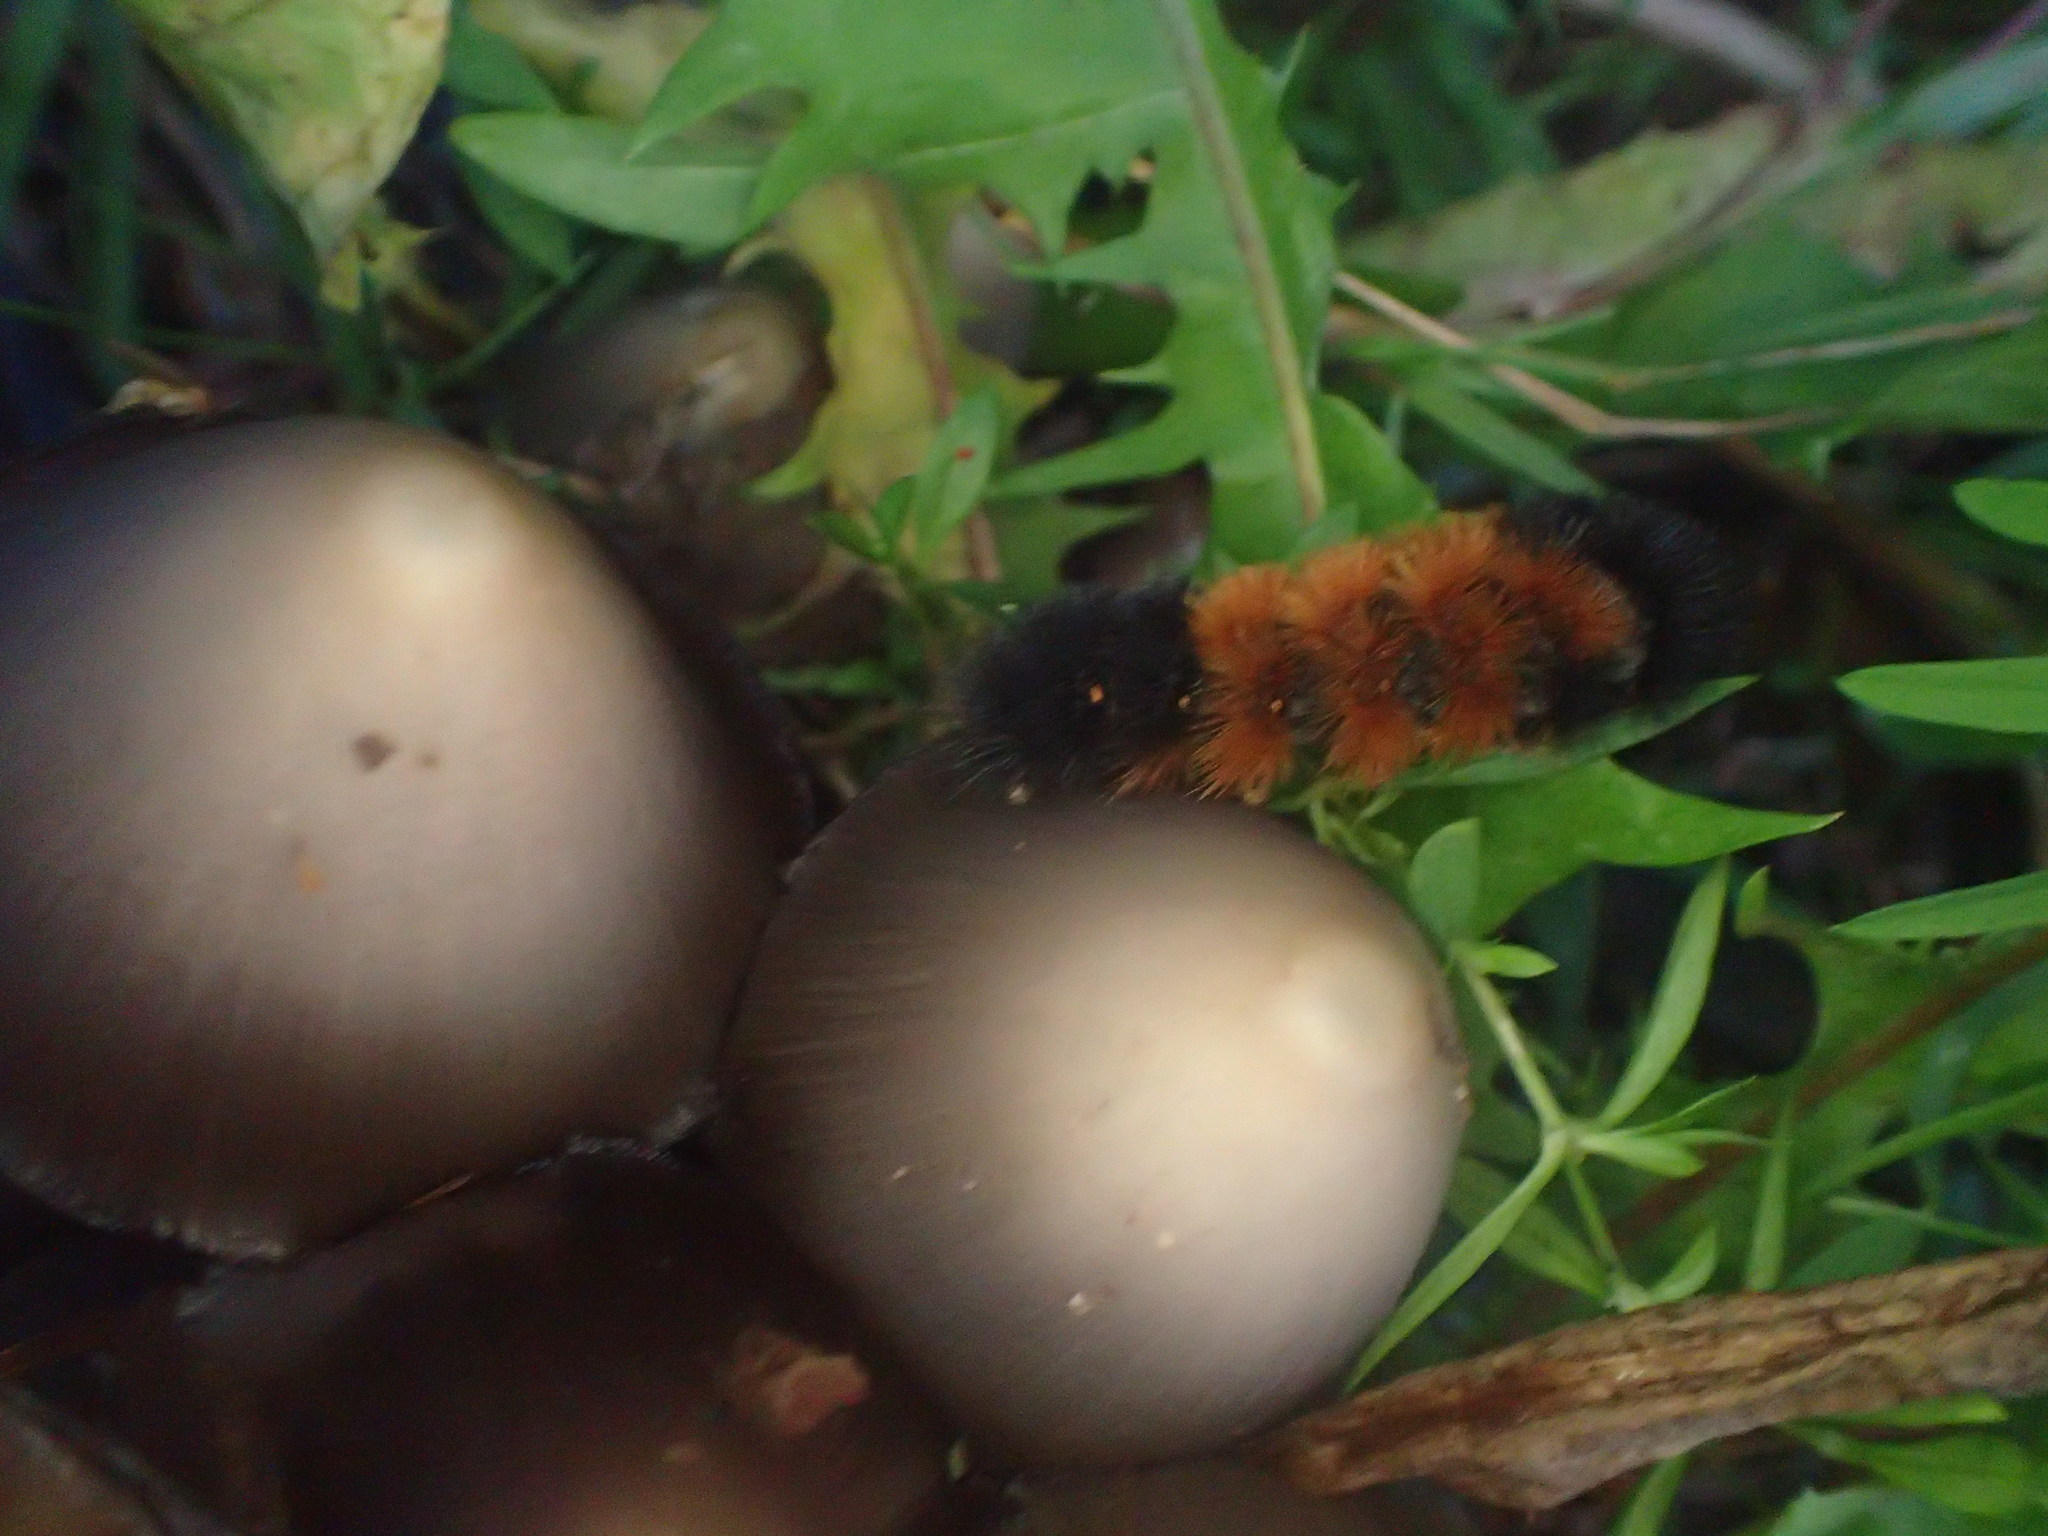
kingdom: Animalia
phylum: Arthropoda
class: Insecta
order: Lepidoptera
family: Erebidae
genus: Pyrrharctia
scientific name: Pyrrharctia isabella
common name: Isabella tiger moth
